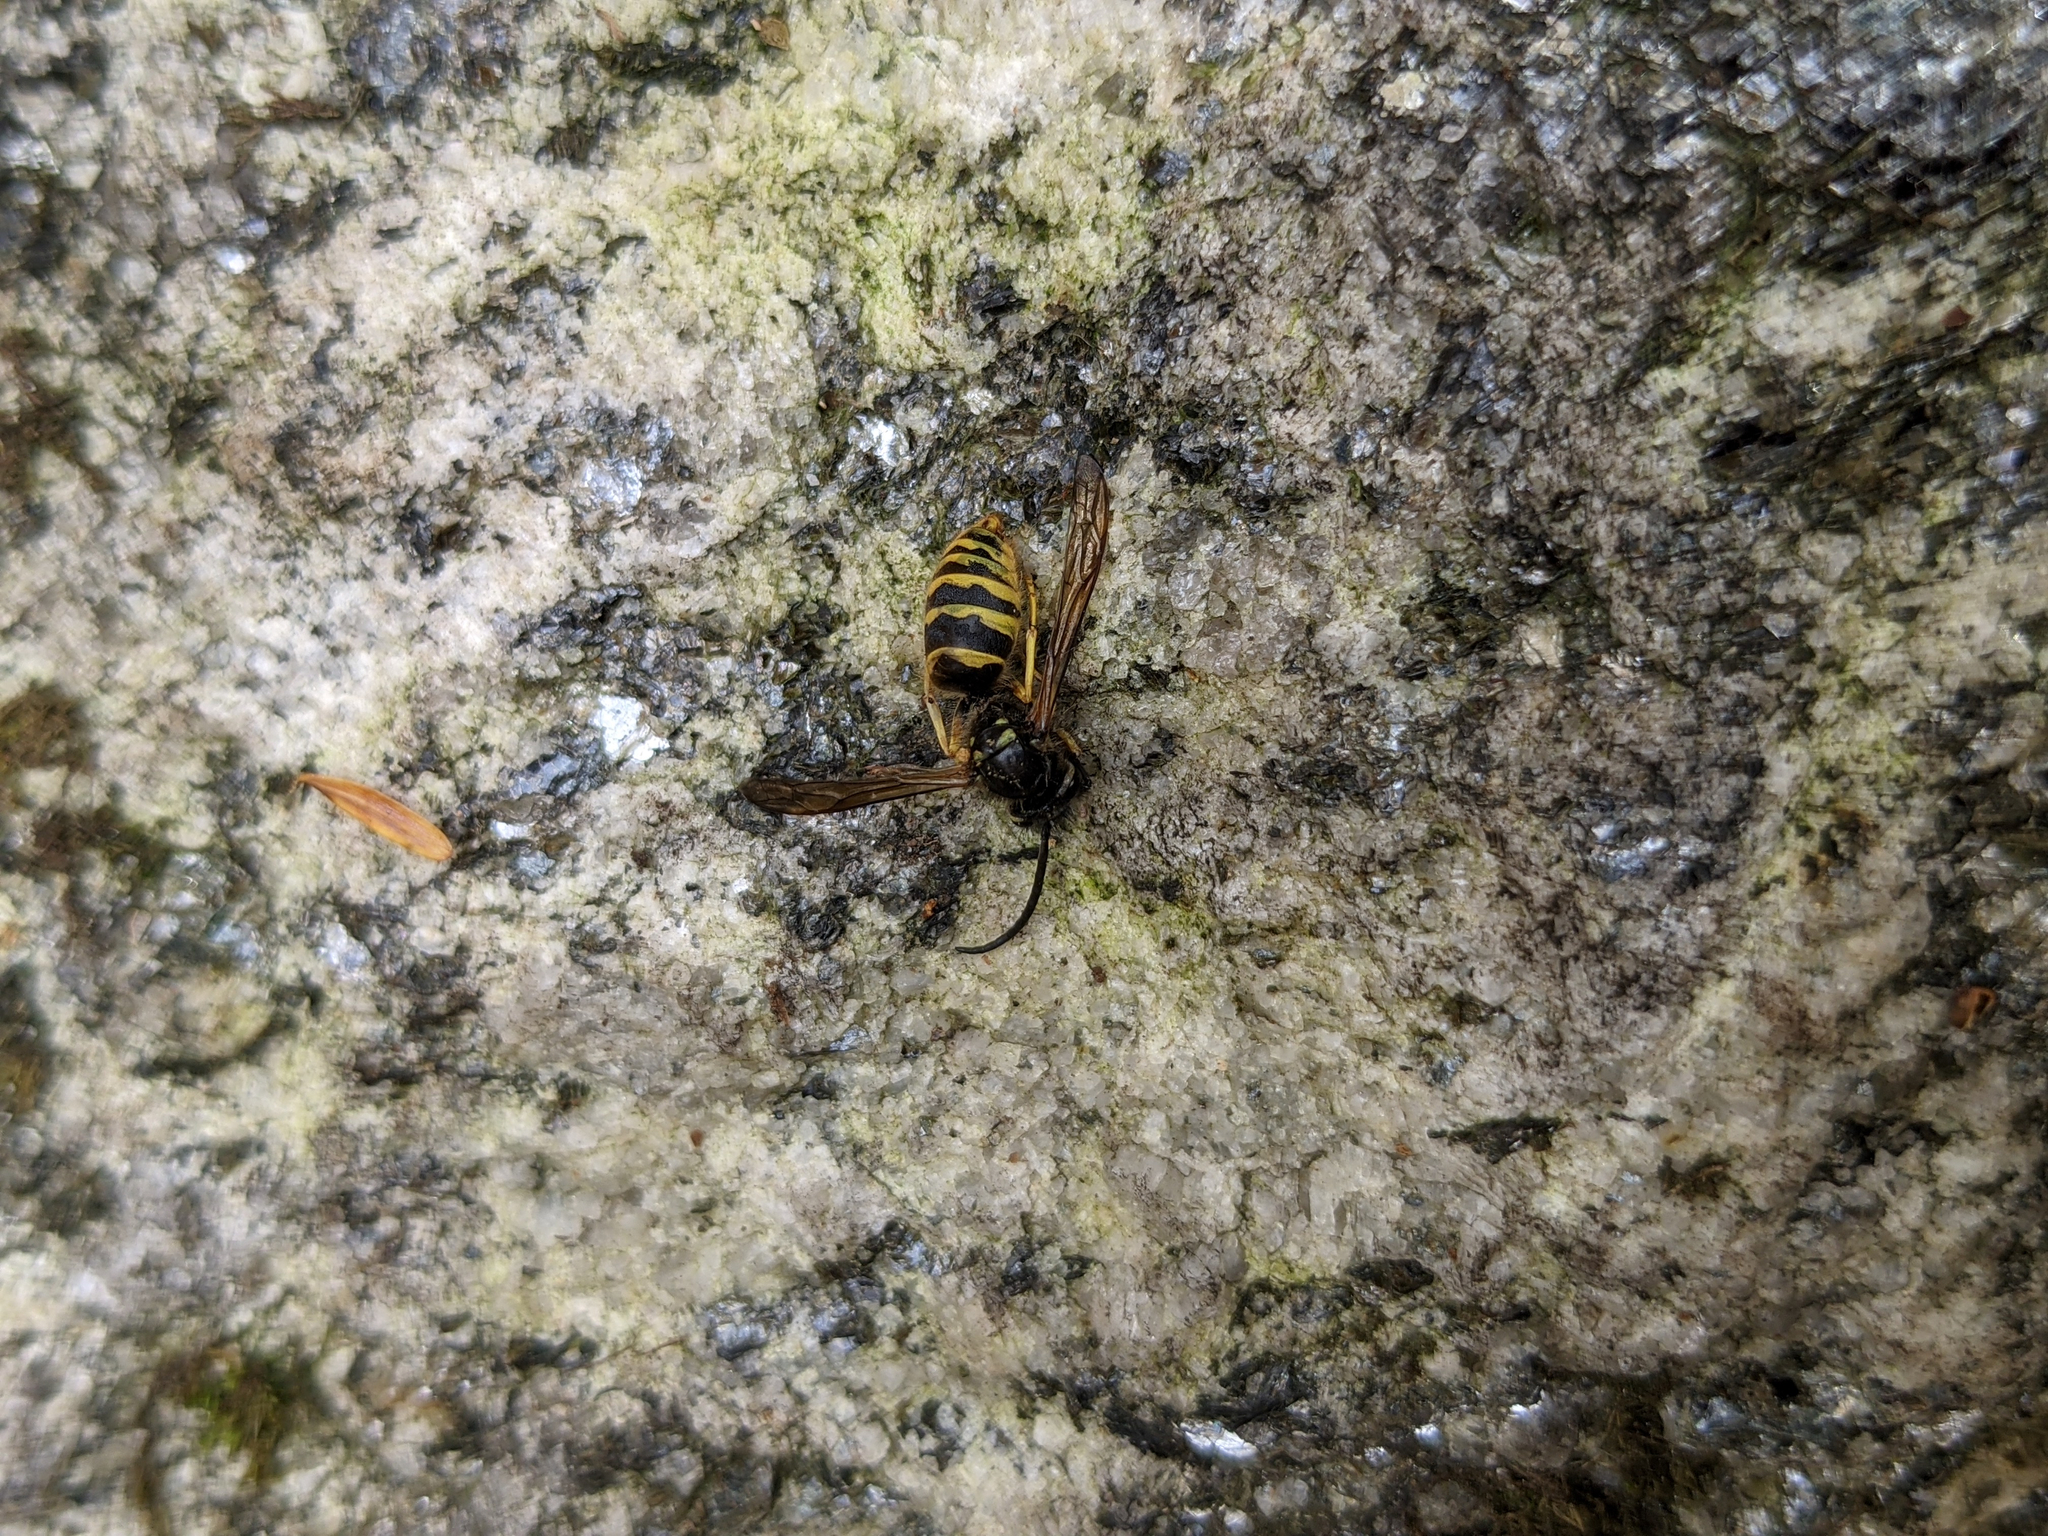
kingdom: Animalia
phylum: Arthropoda
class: Insecta
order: Hymenoptera
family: Vespidae
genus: Vespula
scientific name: Vespula
